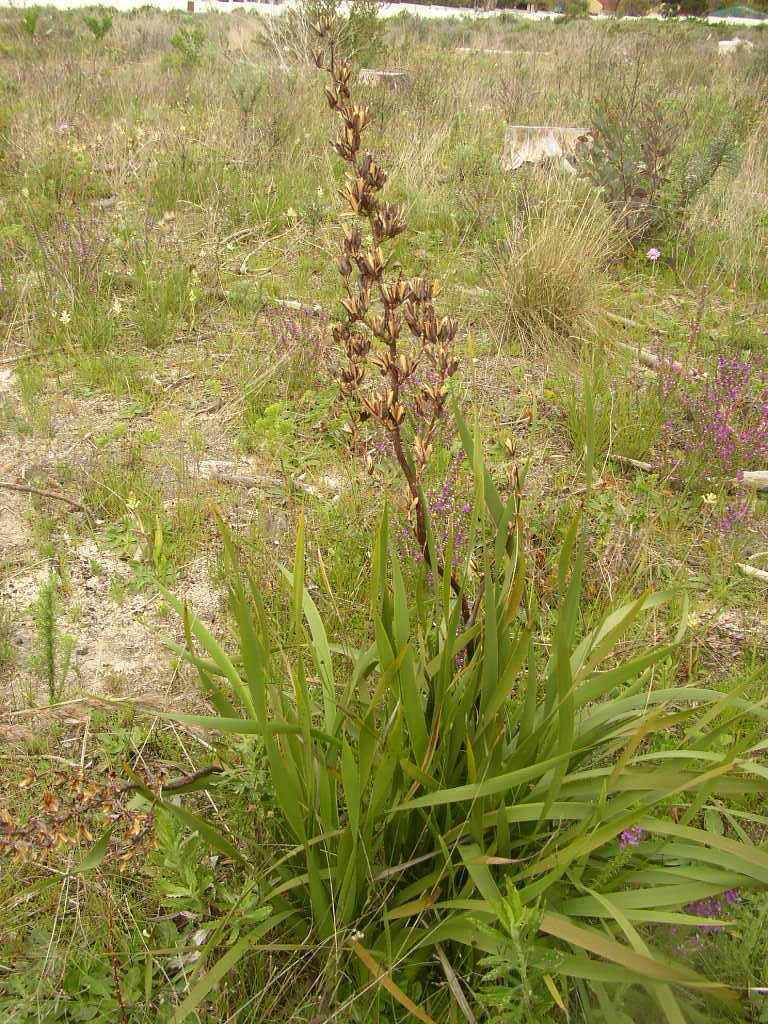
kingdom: Plantae
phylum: Tracheophyta
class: Liliopsida
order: Asparagales
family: Iridaceae
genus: Aristea
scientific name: Aristea bakeri
